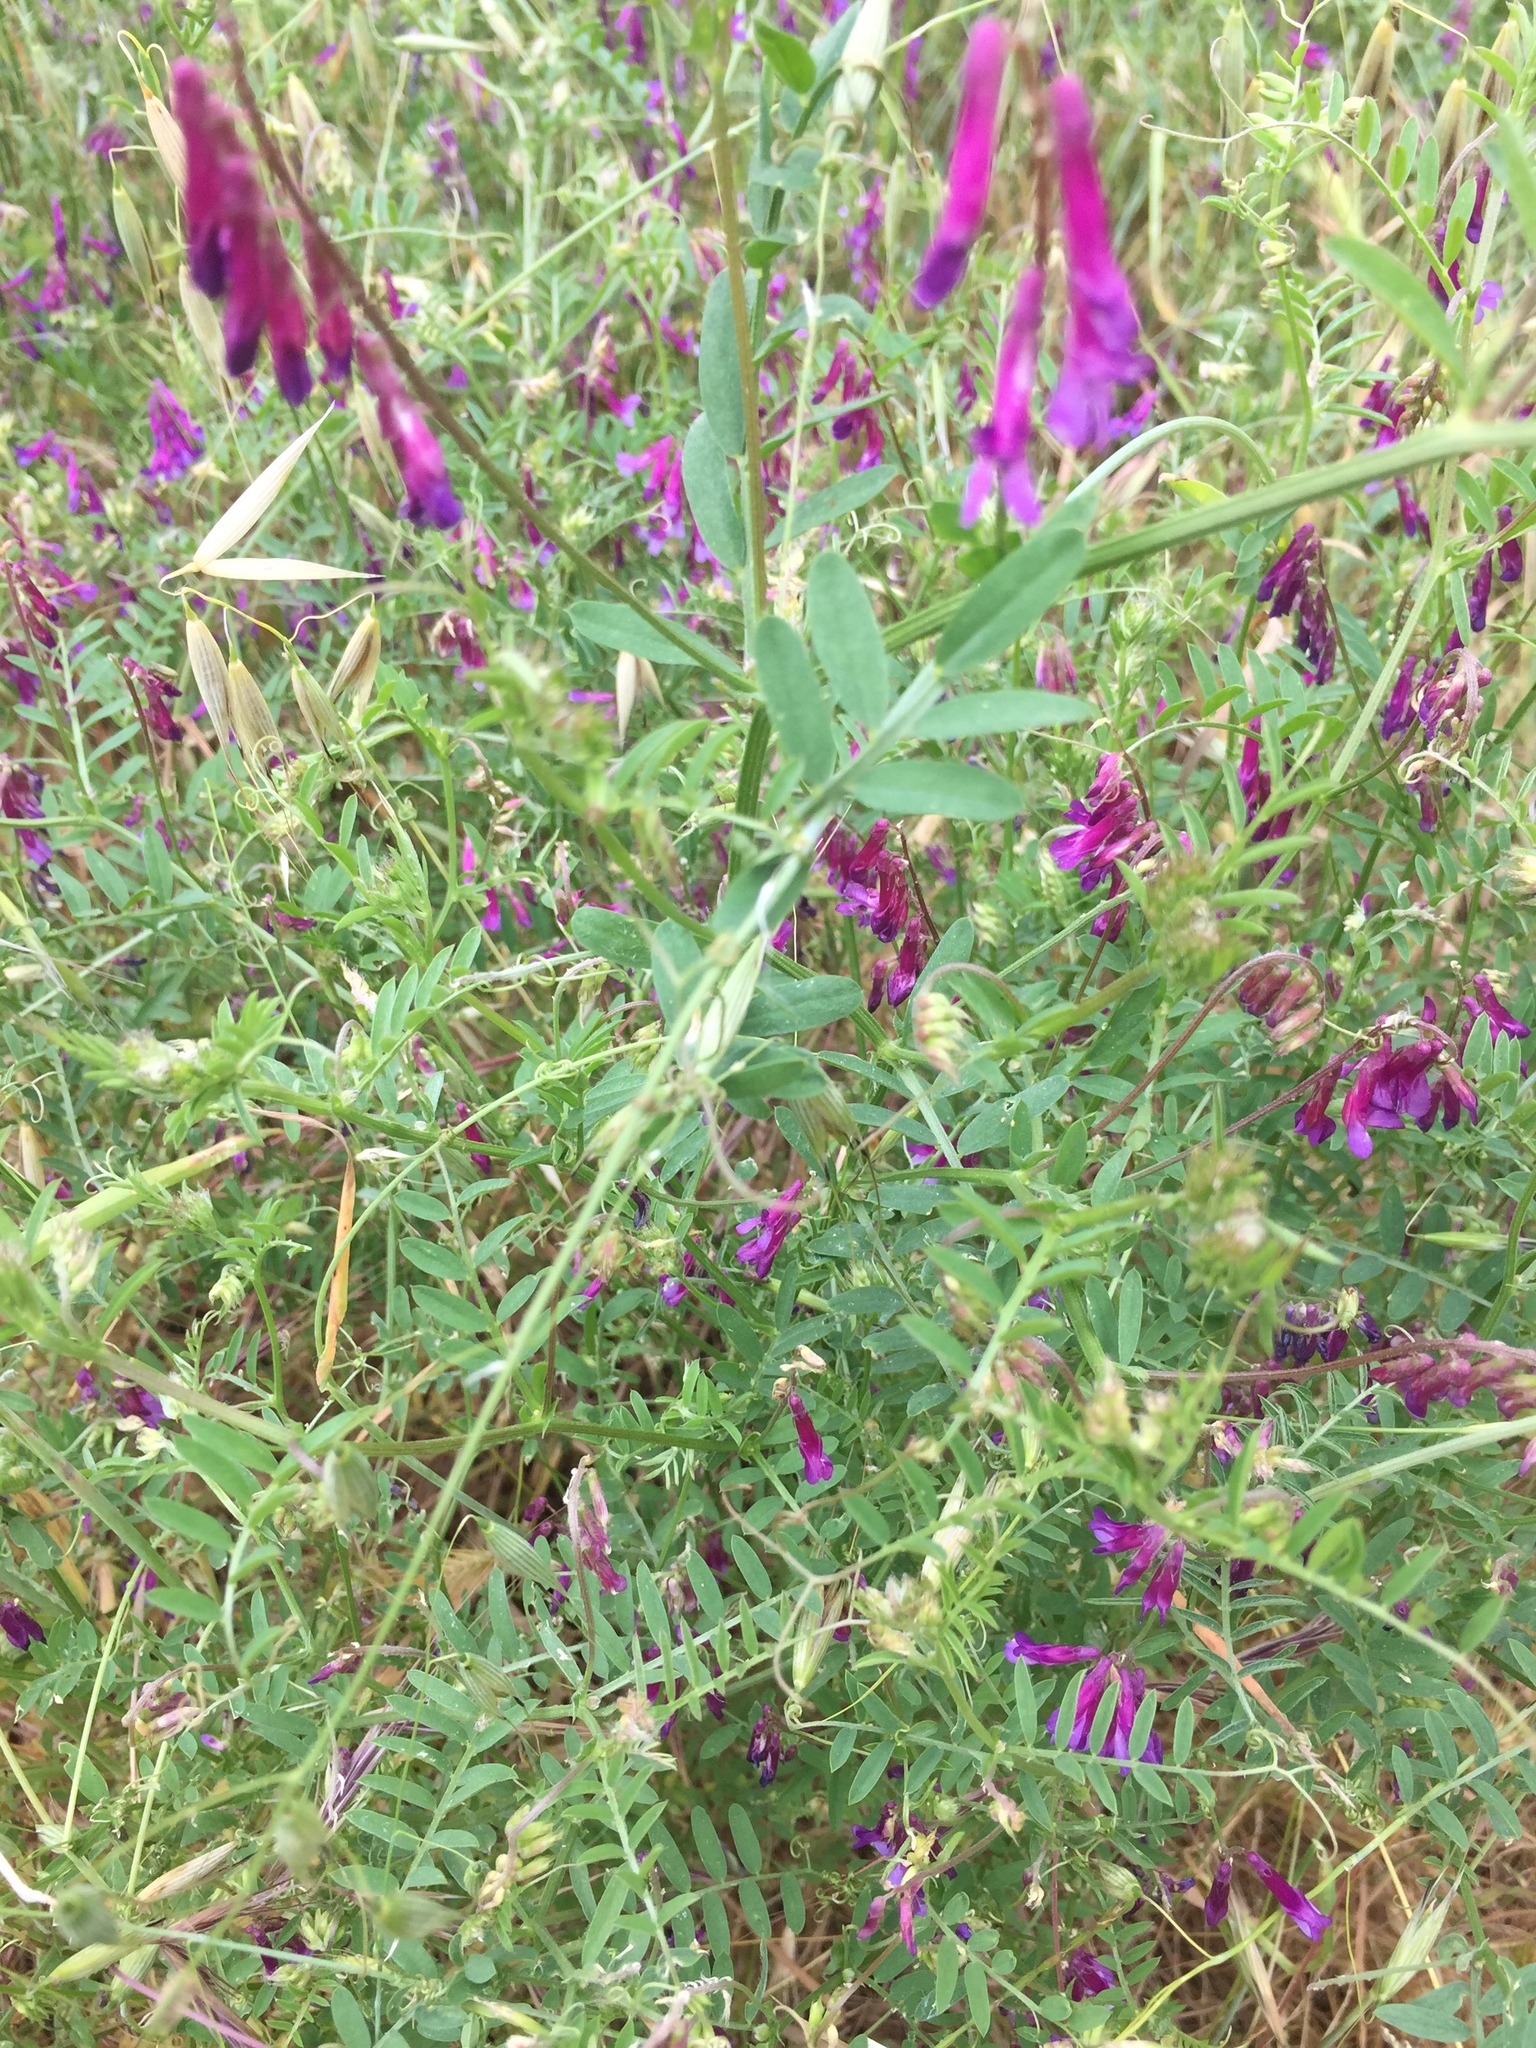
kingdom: Plantae
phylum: Tracheophyta
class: Magnoliopsida
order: Fabales
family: Fabaceae
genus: Vicia
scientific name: Vicia villosa
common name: Fodder vetch
